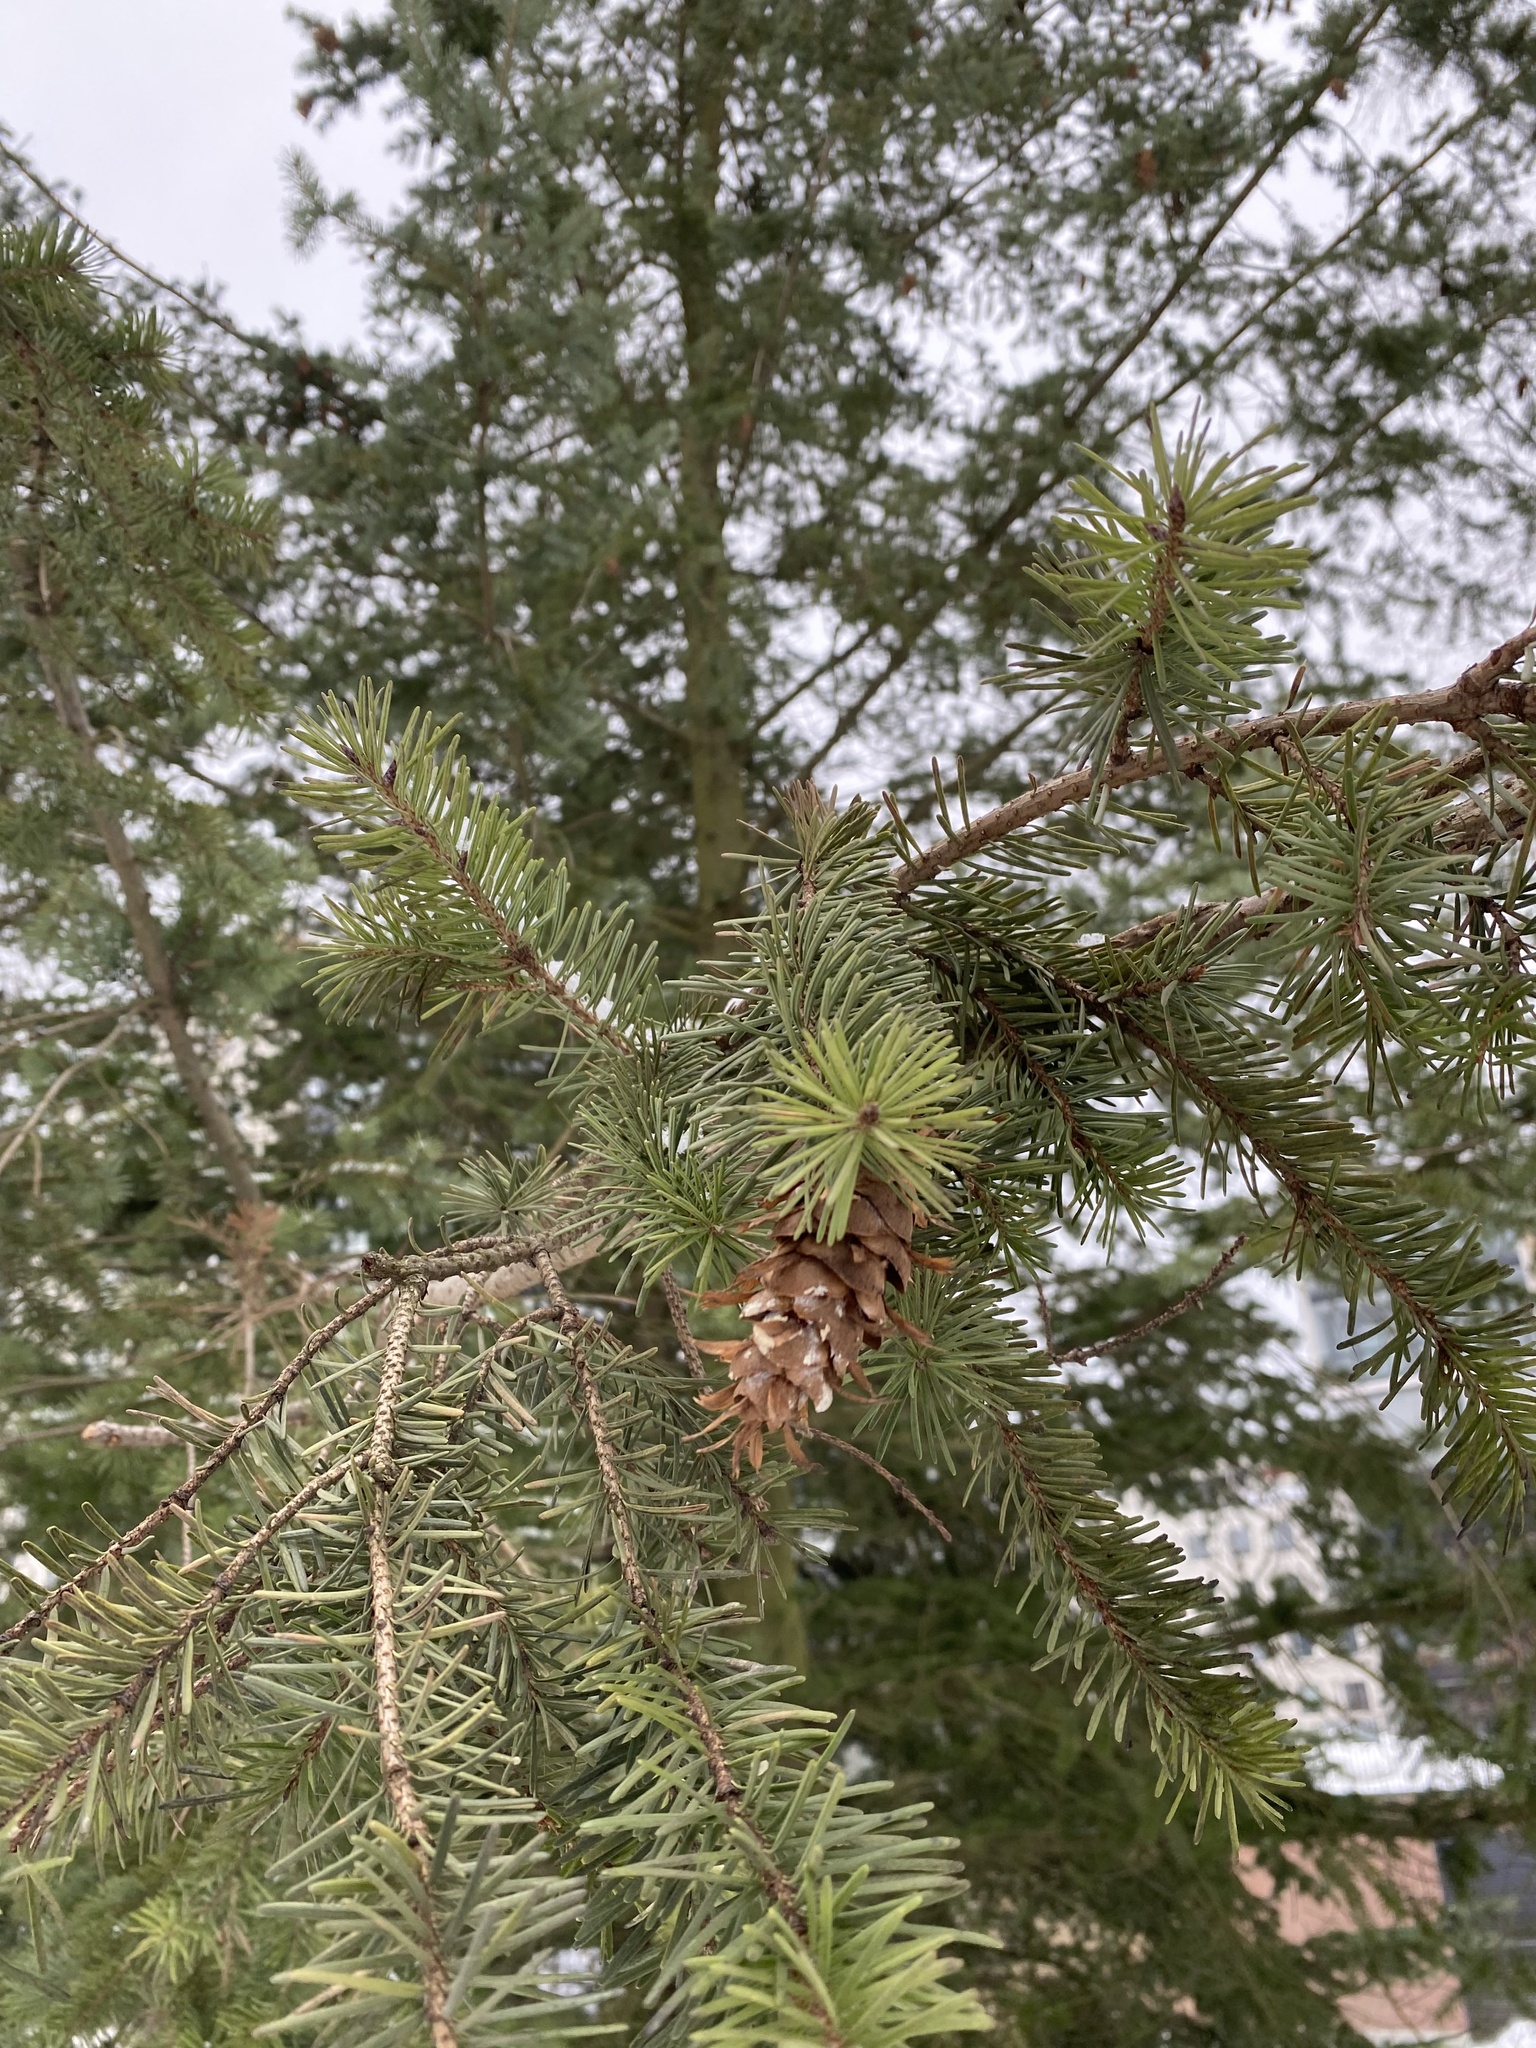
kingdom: Plantae
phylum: Tracheophyta
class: Pinopsida
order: Pinales
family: Pinaceae
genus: Pseudotsuga
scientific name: Pseudotsuga menziesii
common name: Douglas fir
